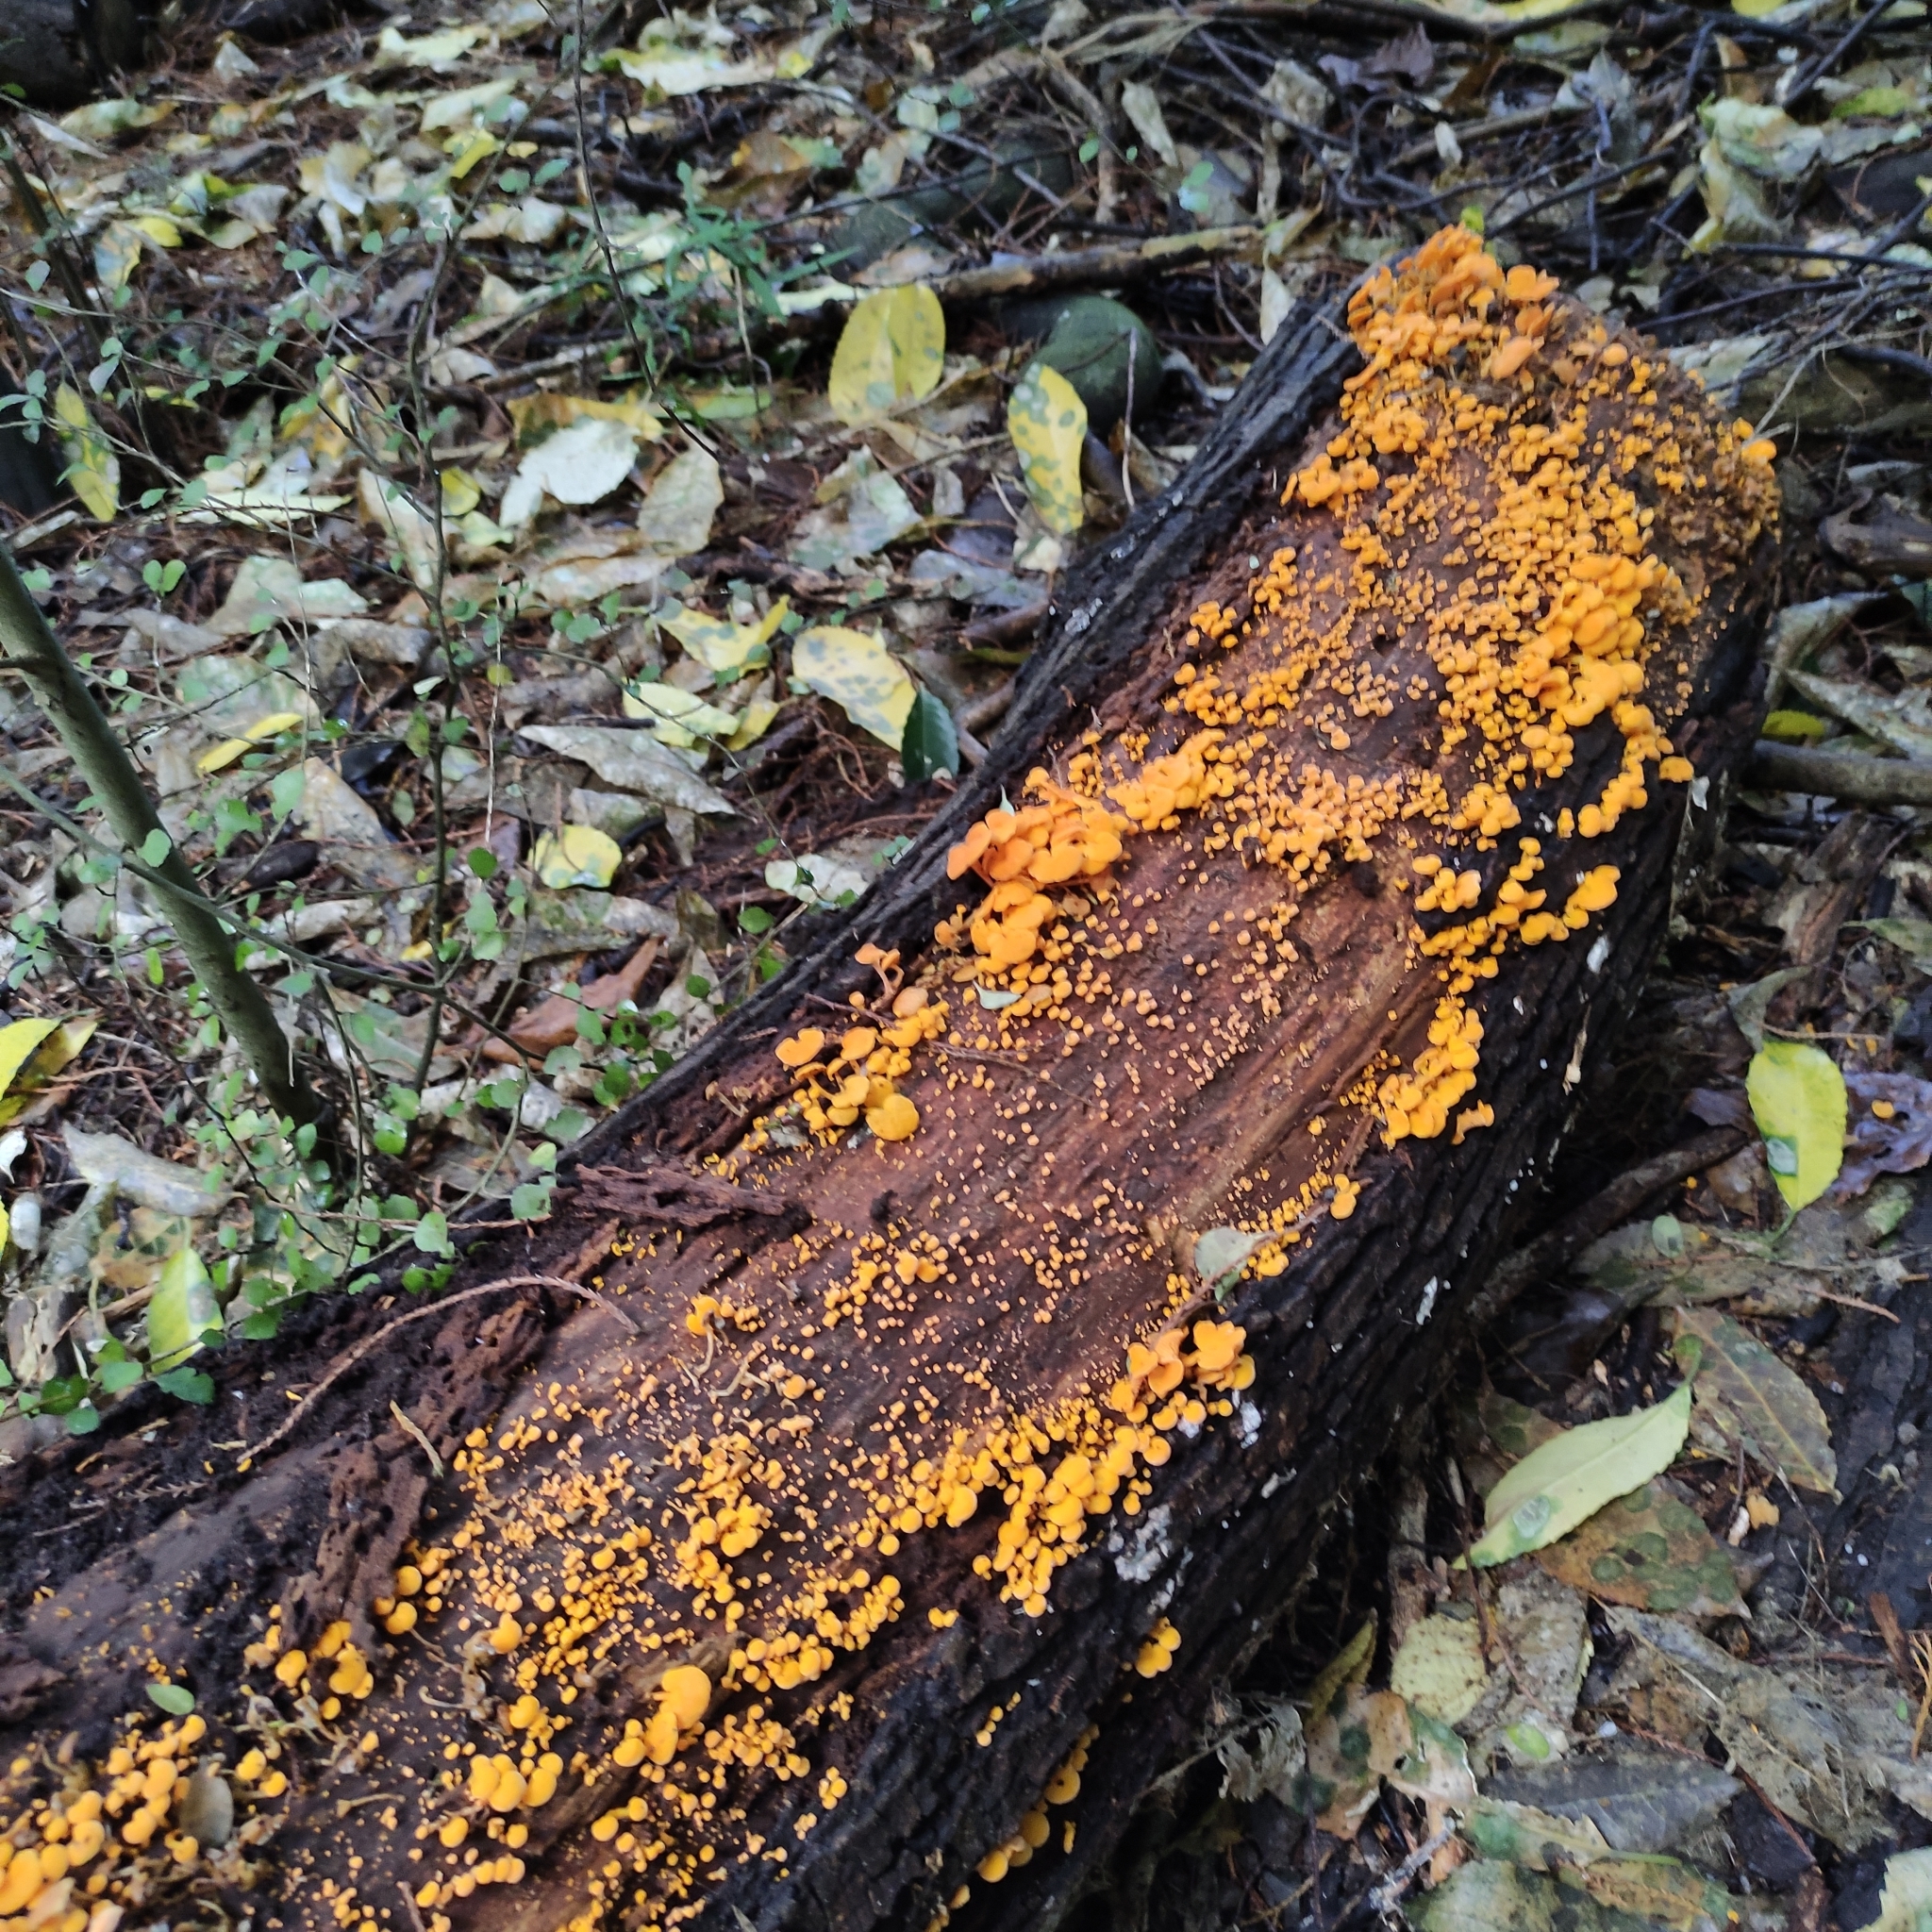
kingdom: Fungi
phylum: Basidiomycota
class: Agaricomycetes
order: Agaricales
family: Mycenaceae
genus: Favolaschia
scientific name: Favolaschia claudopus
